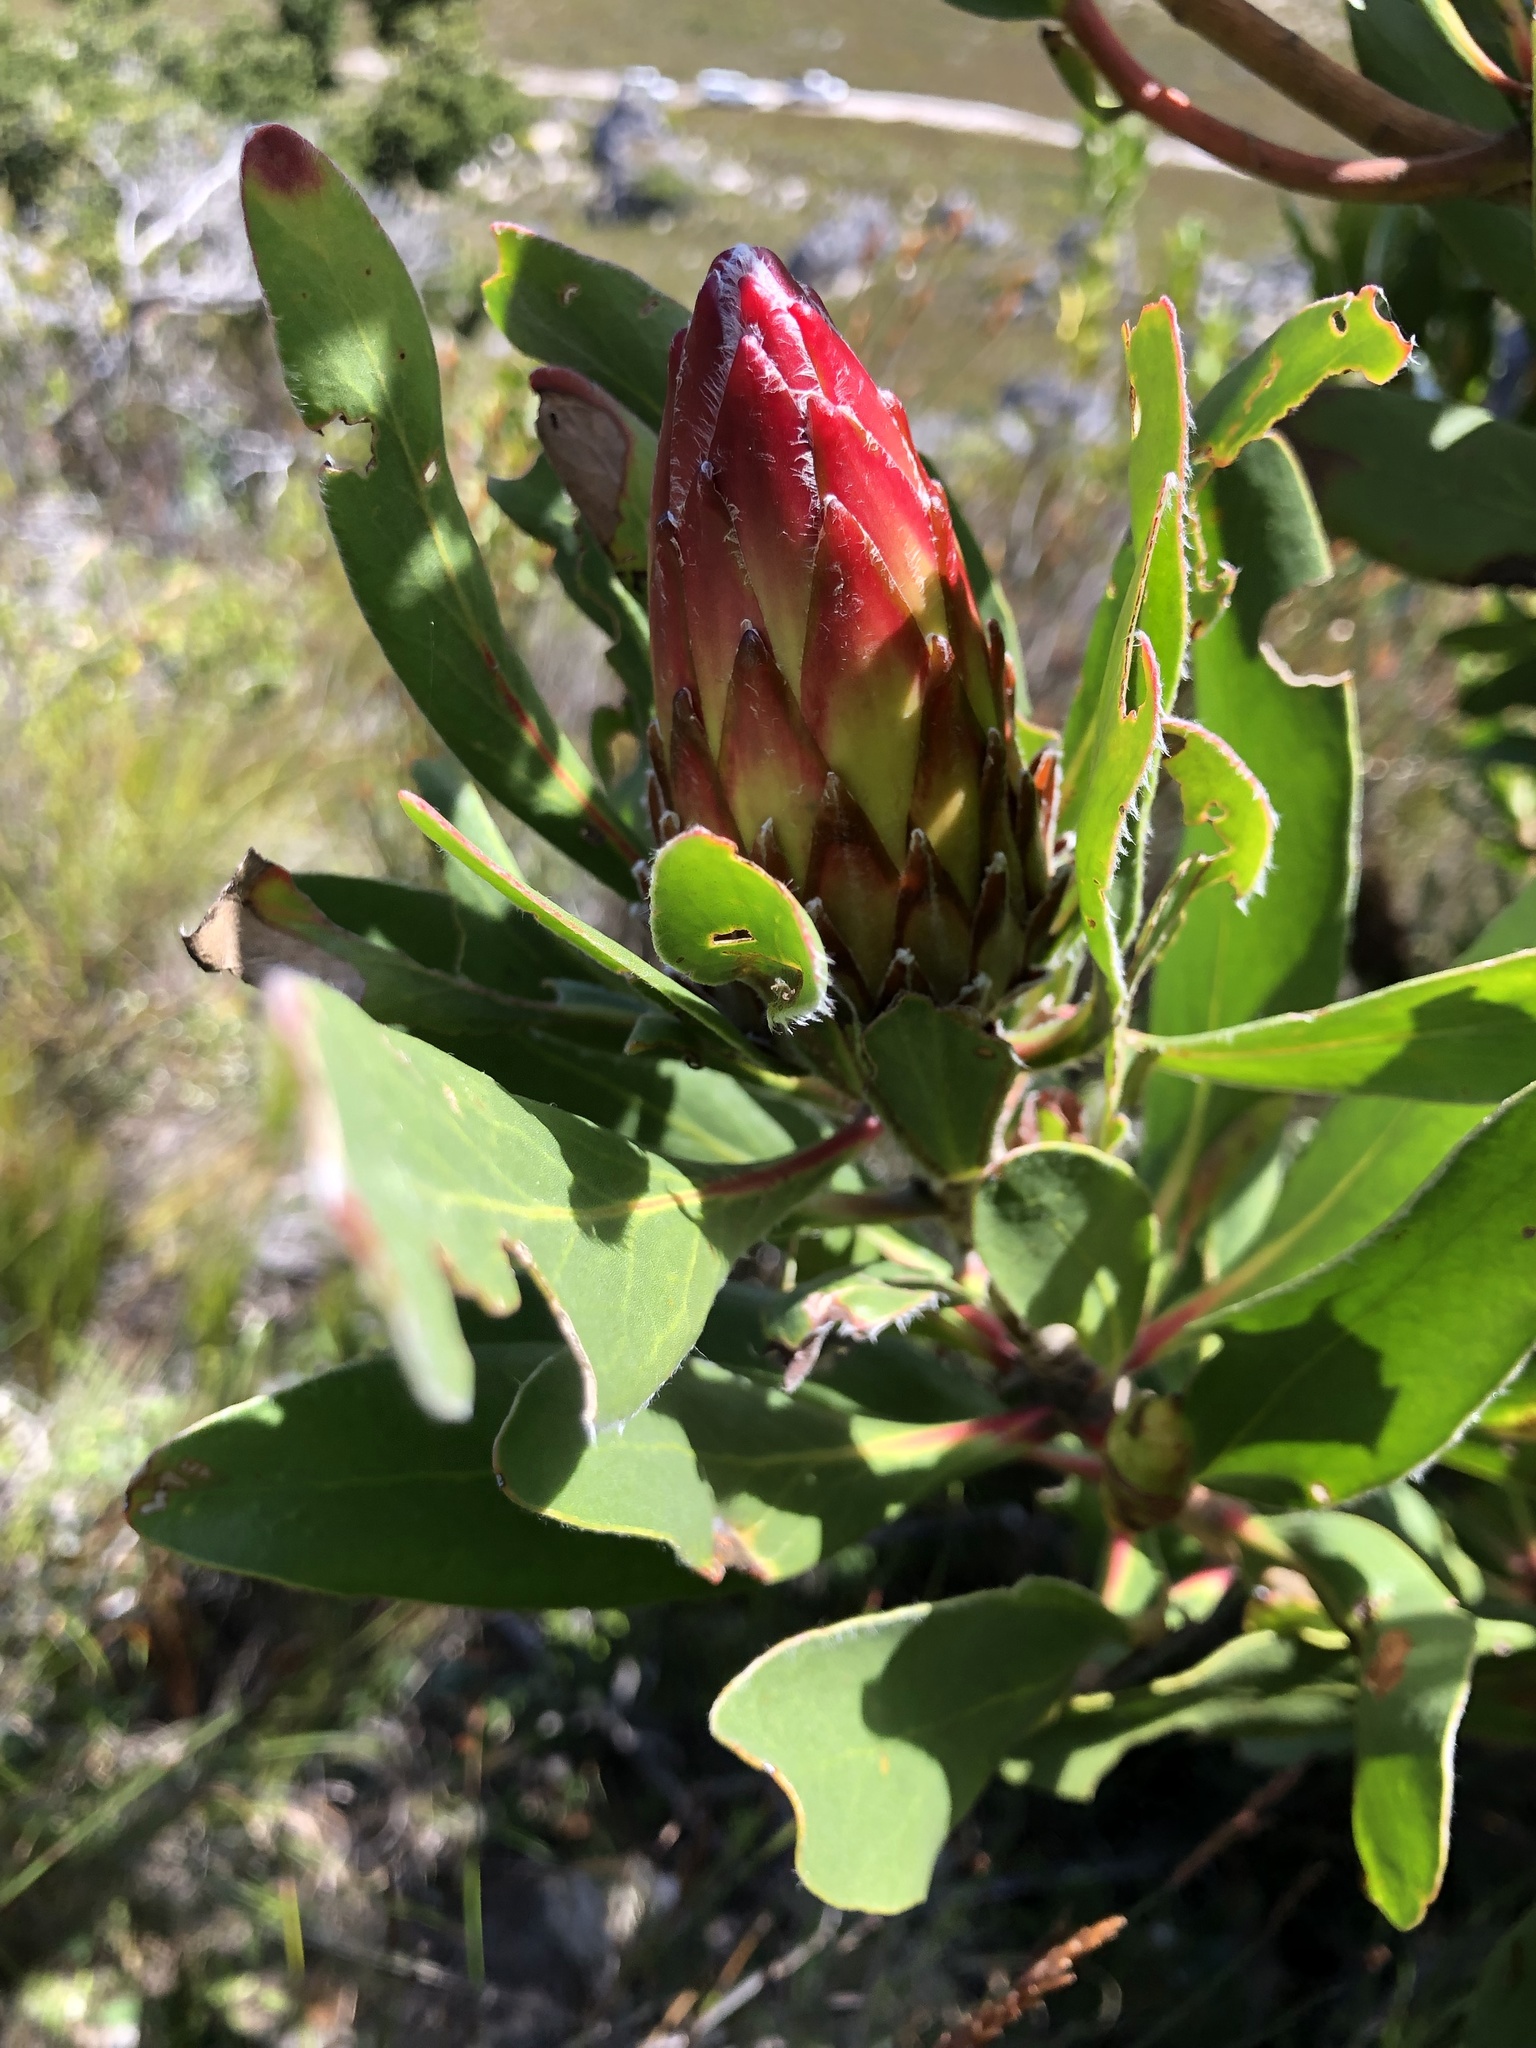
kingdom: Plantae
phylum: Tracheophyta
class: Magnoliopsida
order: Proteales
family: Proteaceae
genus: Protea
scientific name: Protea obtusifolia
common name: Bredasdorp sugarbush
